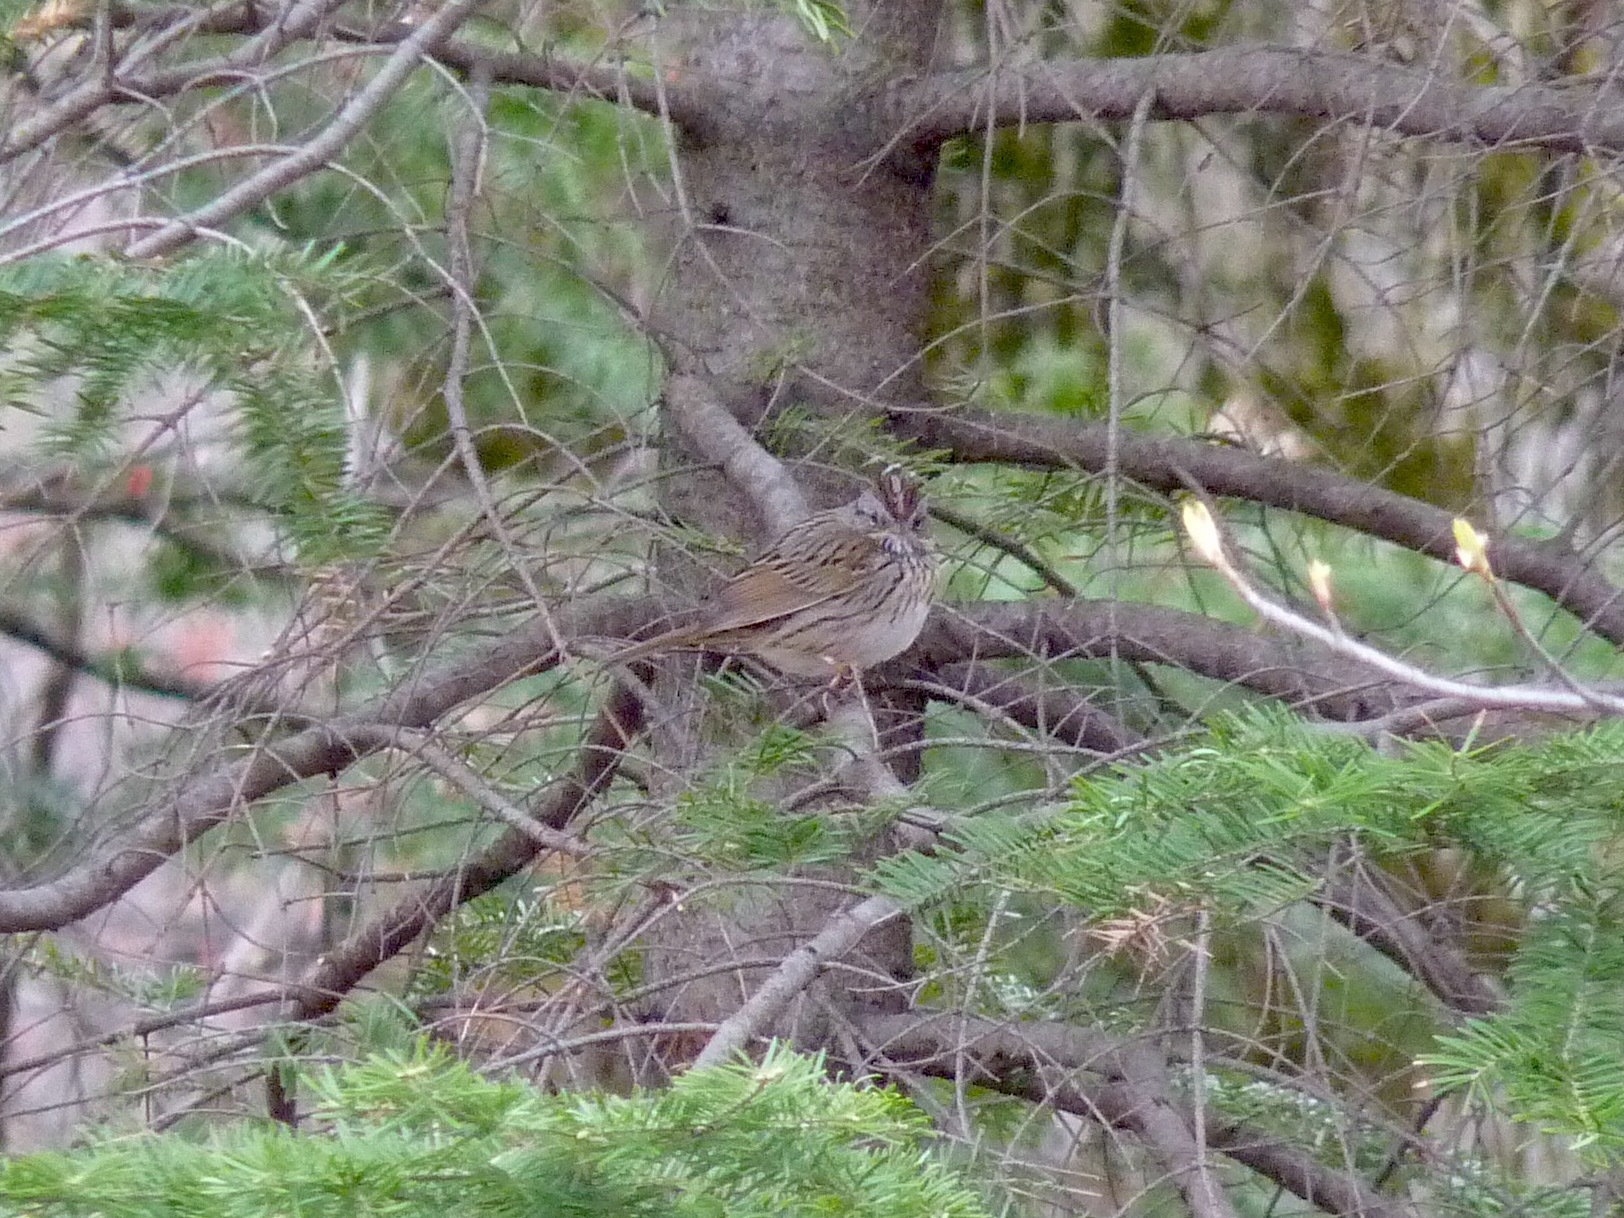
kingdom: Animalia
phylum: Chordata
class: Aves
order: Passeriformes
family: Passerellidae
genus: Melospiza
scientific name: Melospiza lincolnii
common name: Lincoln's sparrow
